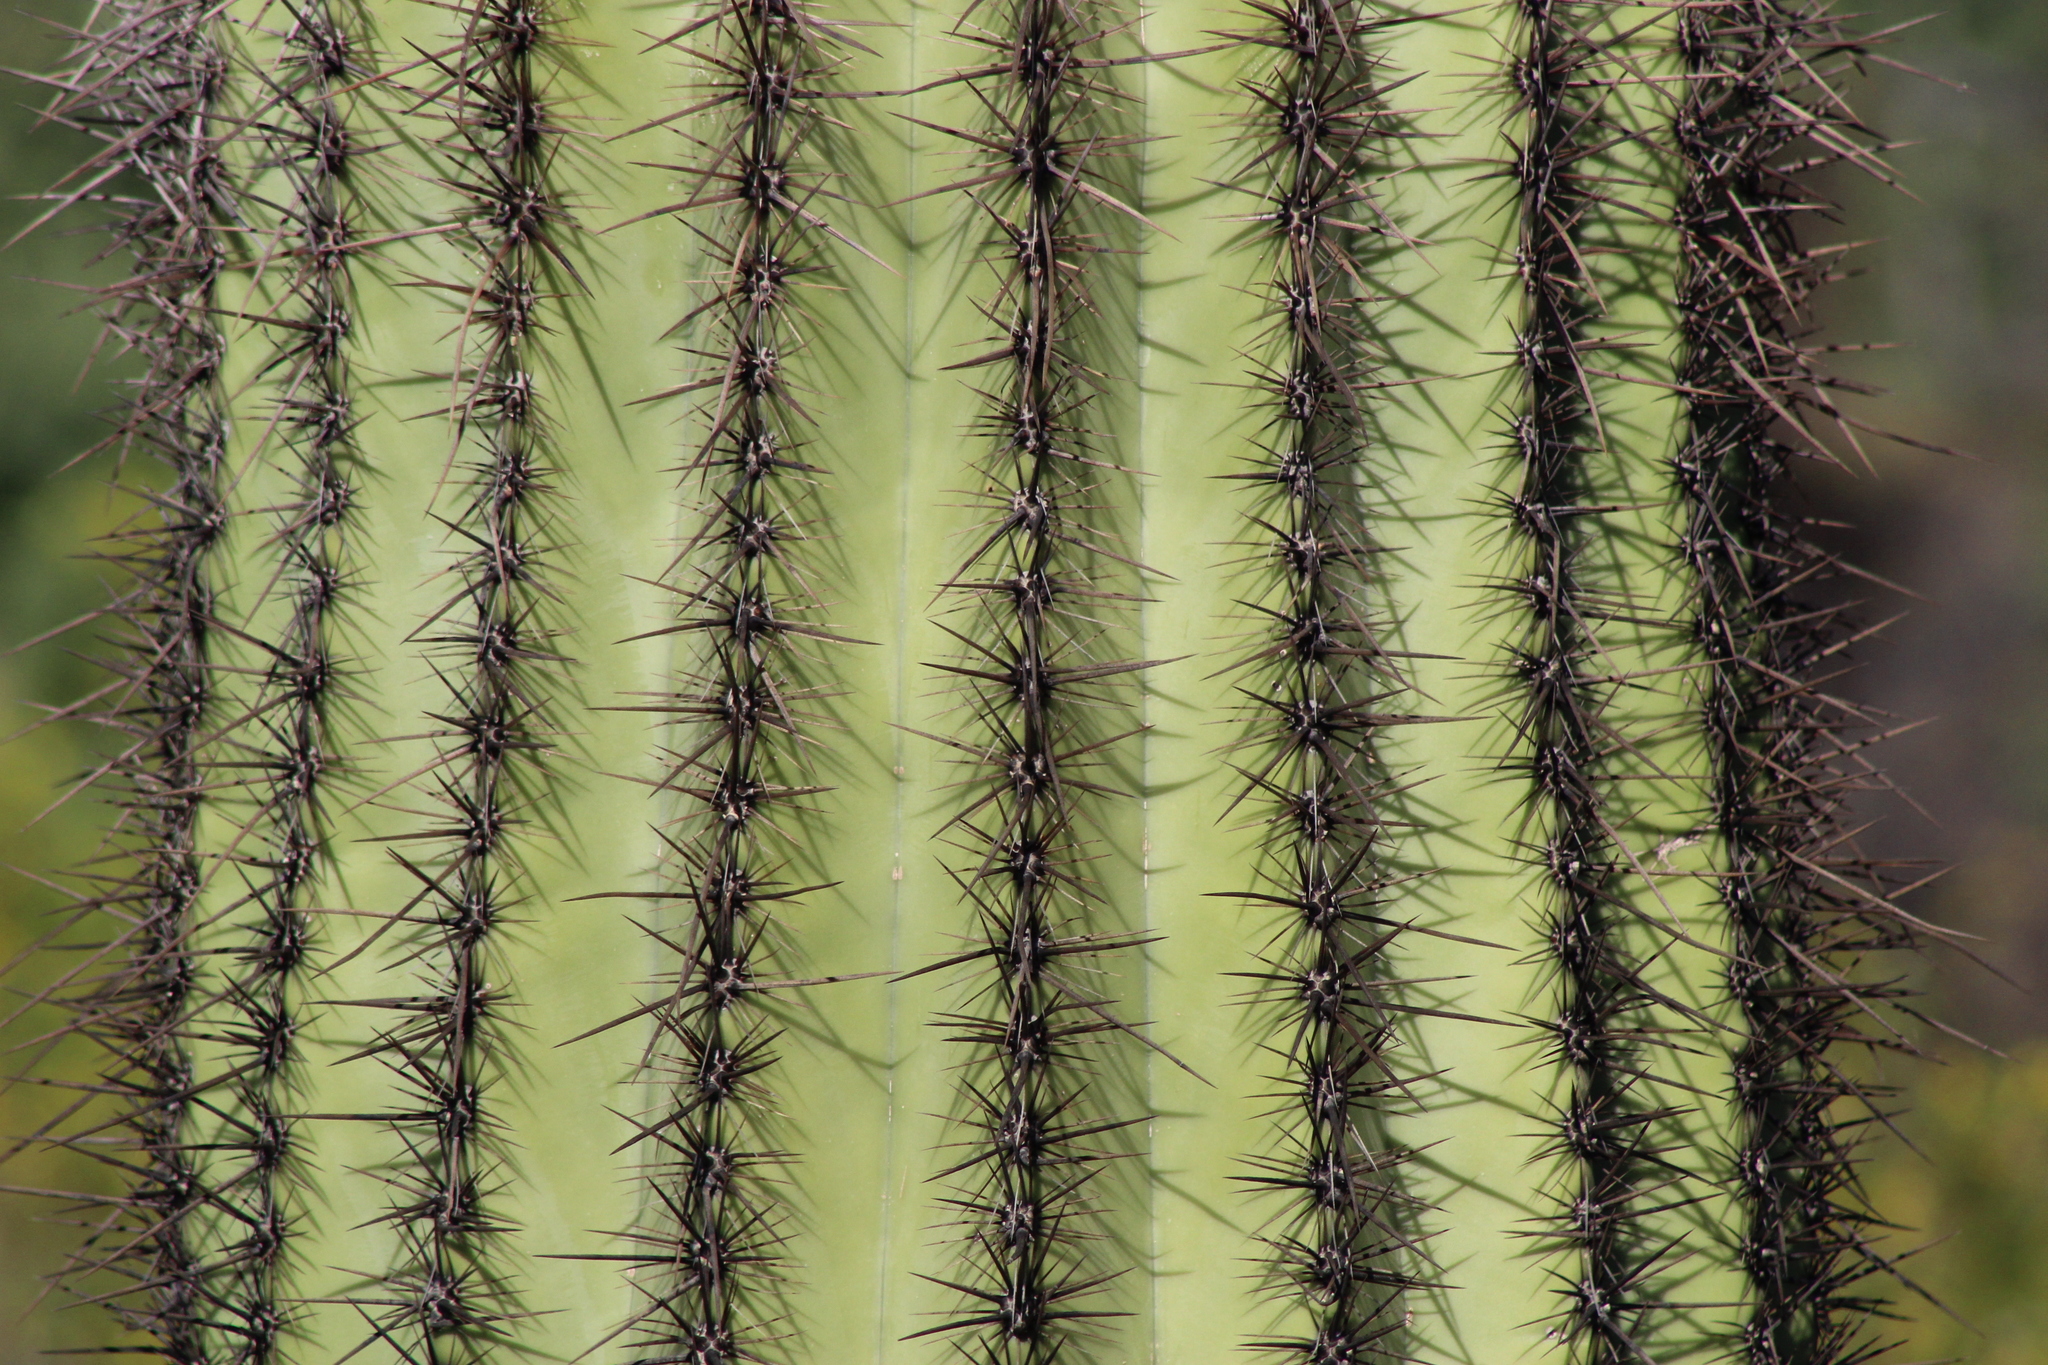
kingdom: Plantae
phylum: Tracheophyta
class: Magnoliopsida
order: Caryophyllales
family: Cactaceae
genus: Carnegiea
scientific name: Carnegiea gigantea
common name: Saguaro
